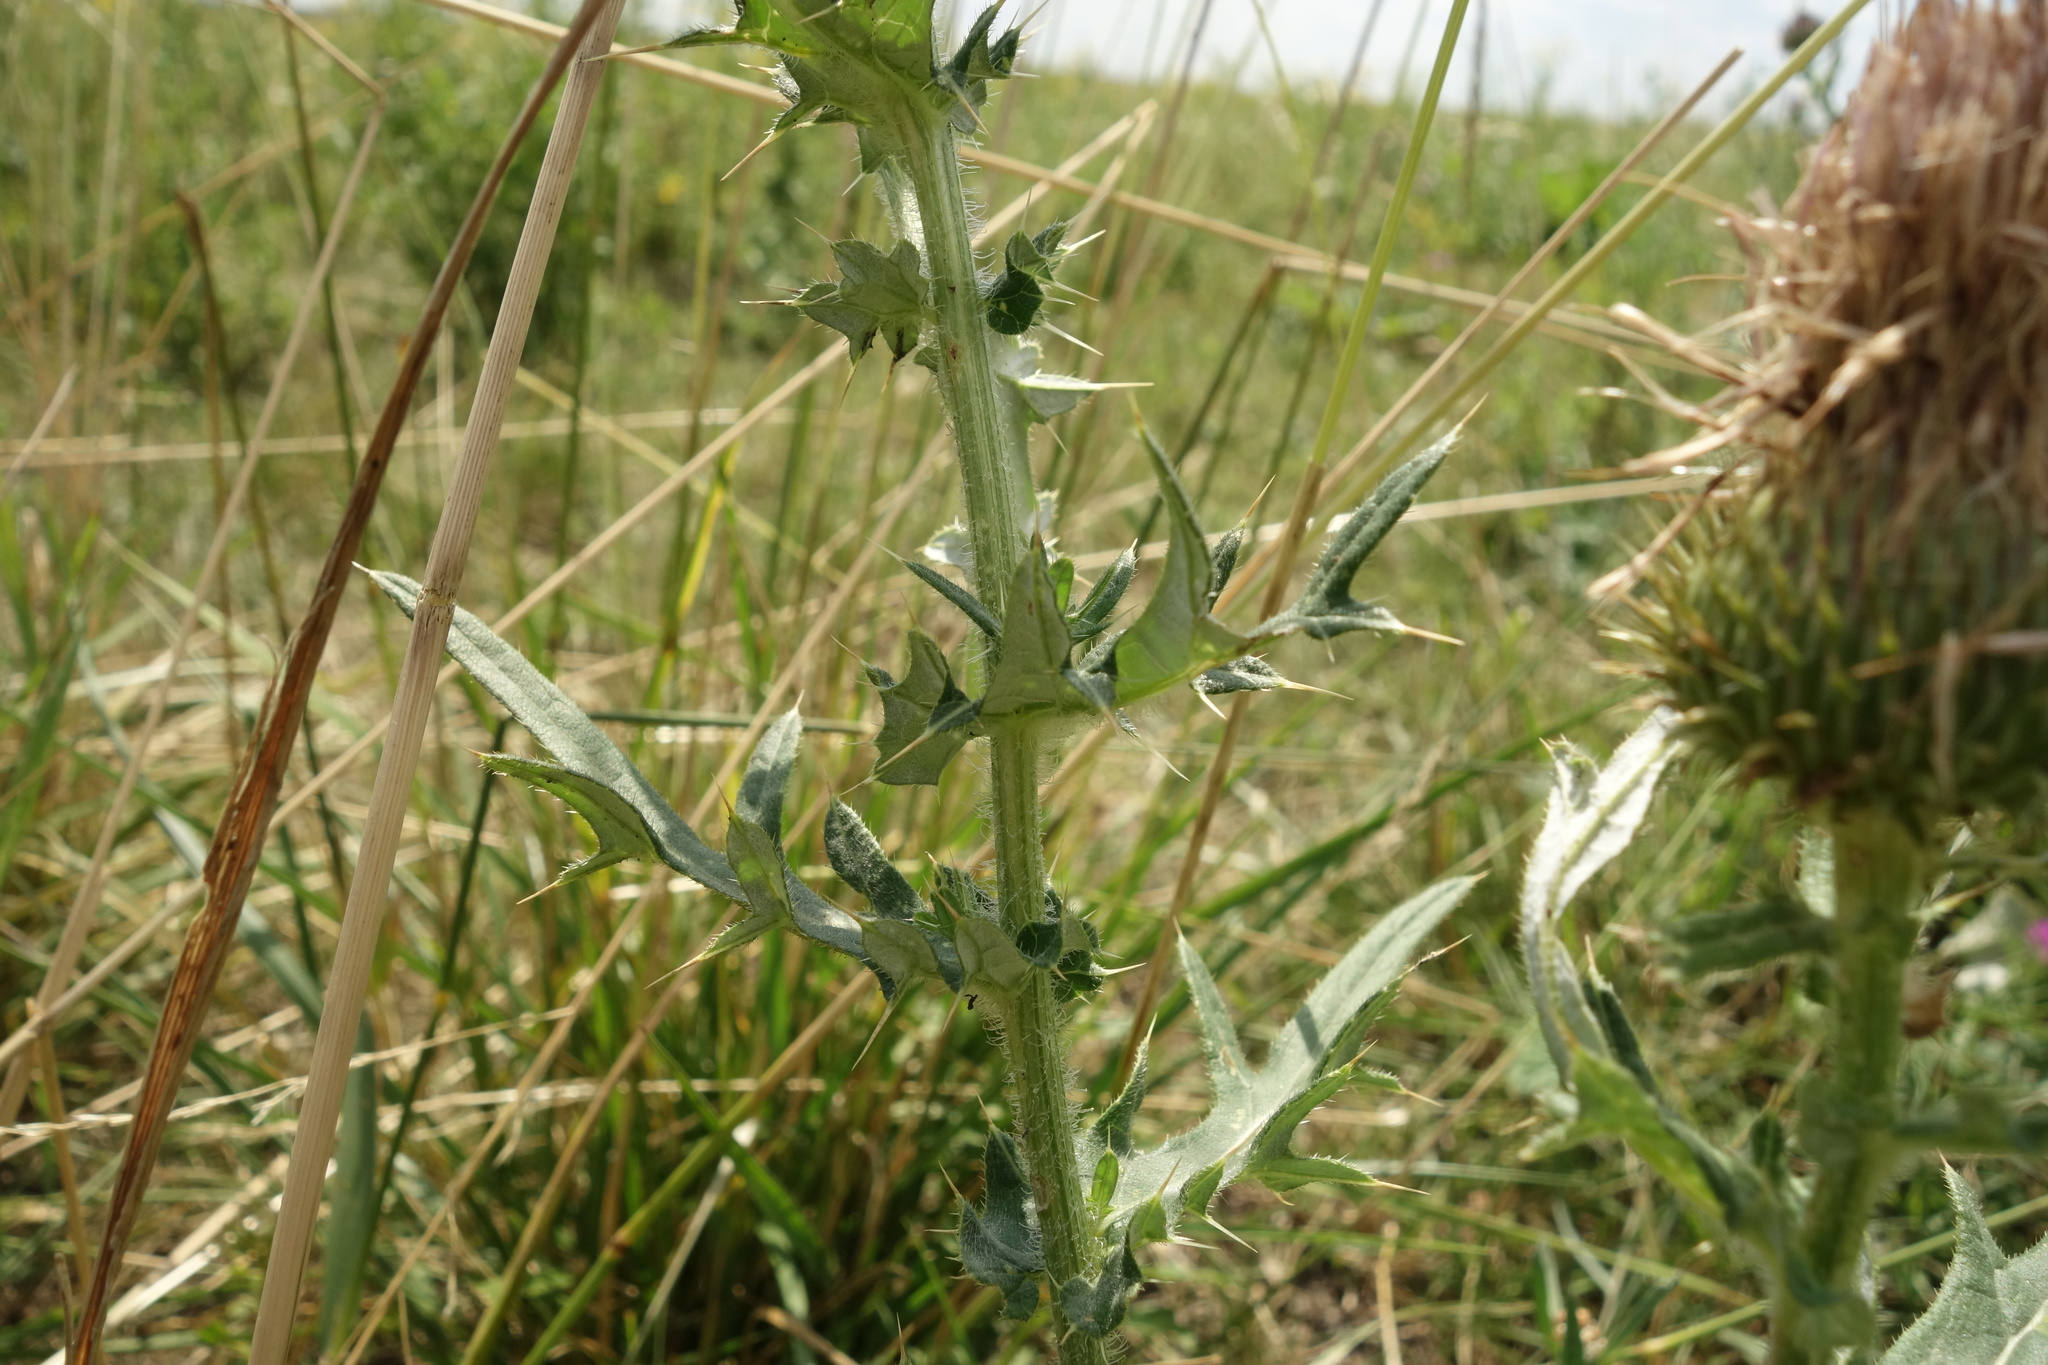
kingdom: Plantae
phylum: Tracheophyta
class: Magnoliopsida
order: Asterales
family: Asteraceae
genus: Cirsium
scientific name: Cirsium serrulatum
